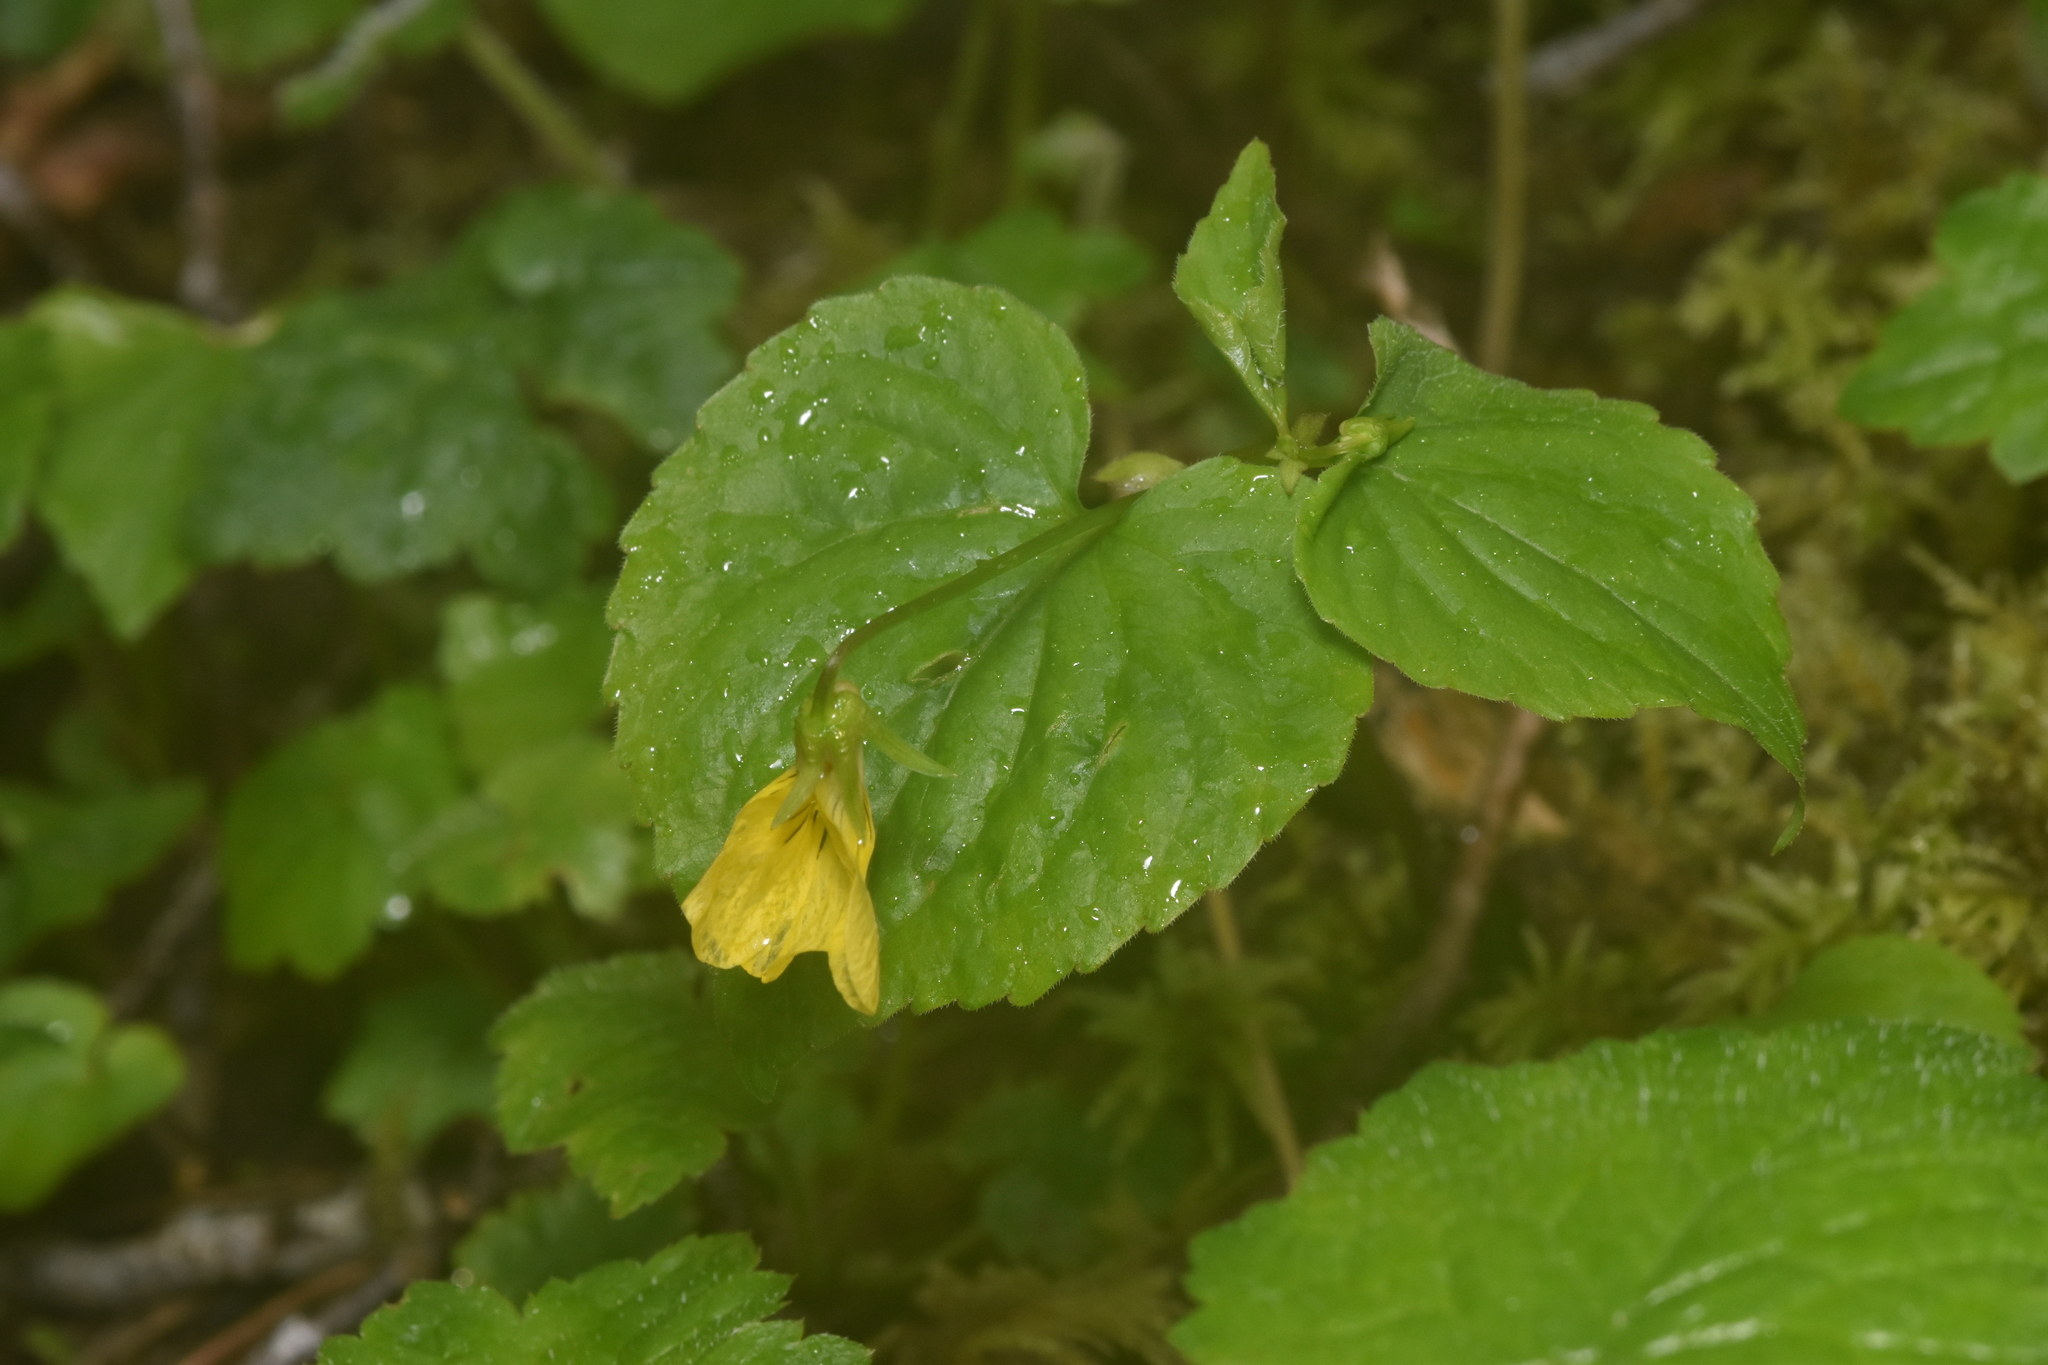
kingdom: Plantae
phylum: Tracheophyta
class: Magnoliopsida
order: Malpighiales
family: Violaceae
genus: Viola
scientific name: Viola glabella
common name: Stream violet
